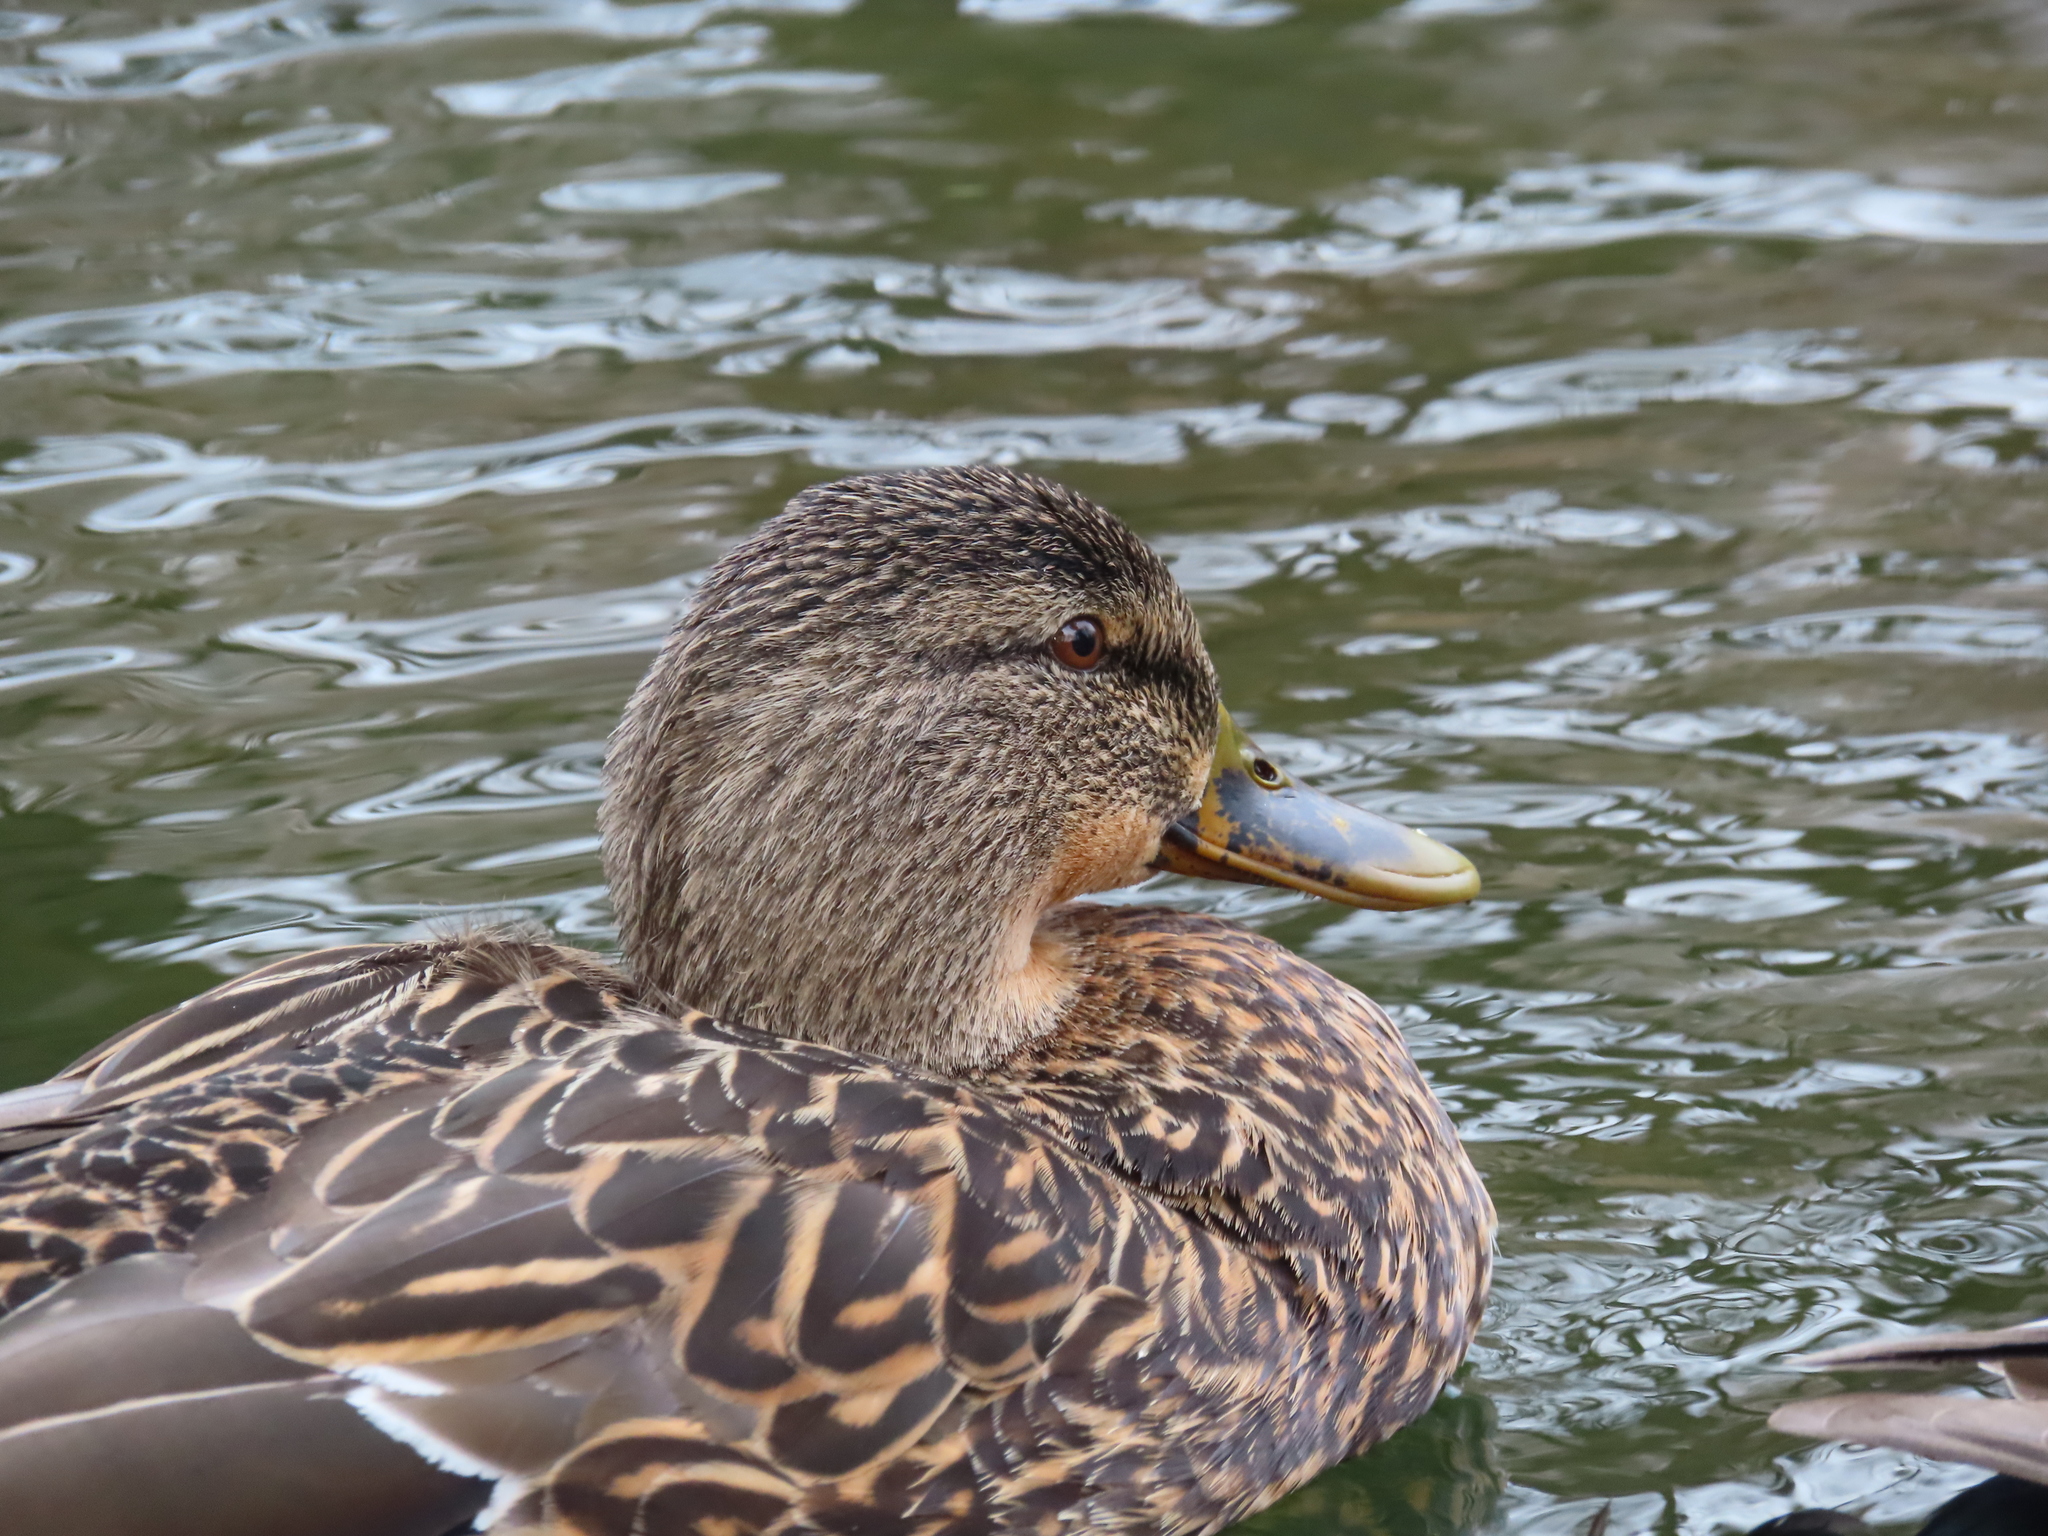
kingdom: Animalia
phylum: Chordata
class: Aves
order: Anseriformes
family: Anatidae
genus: Anas
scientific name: Anas platyrhynchos
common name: Mallard
